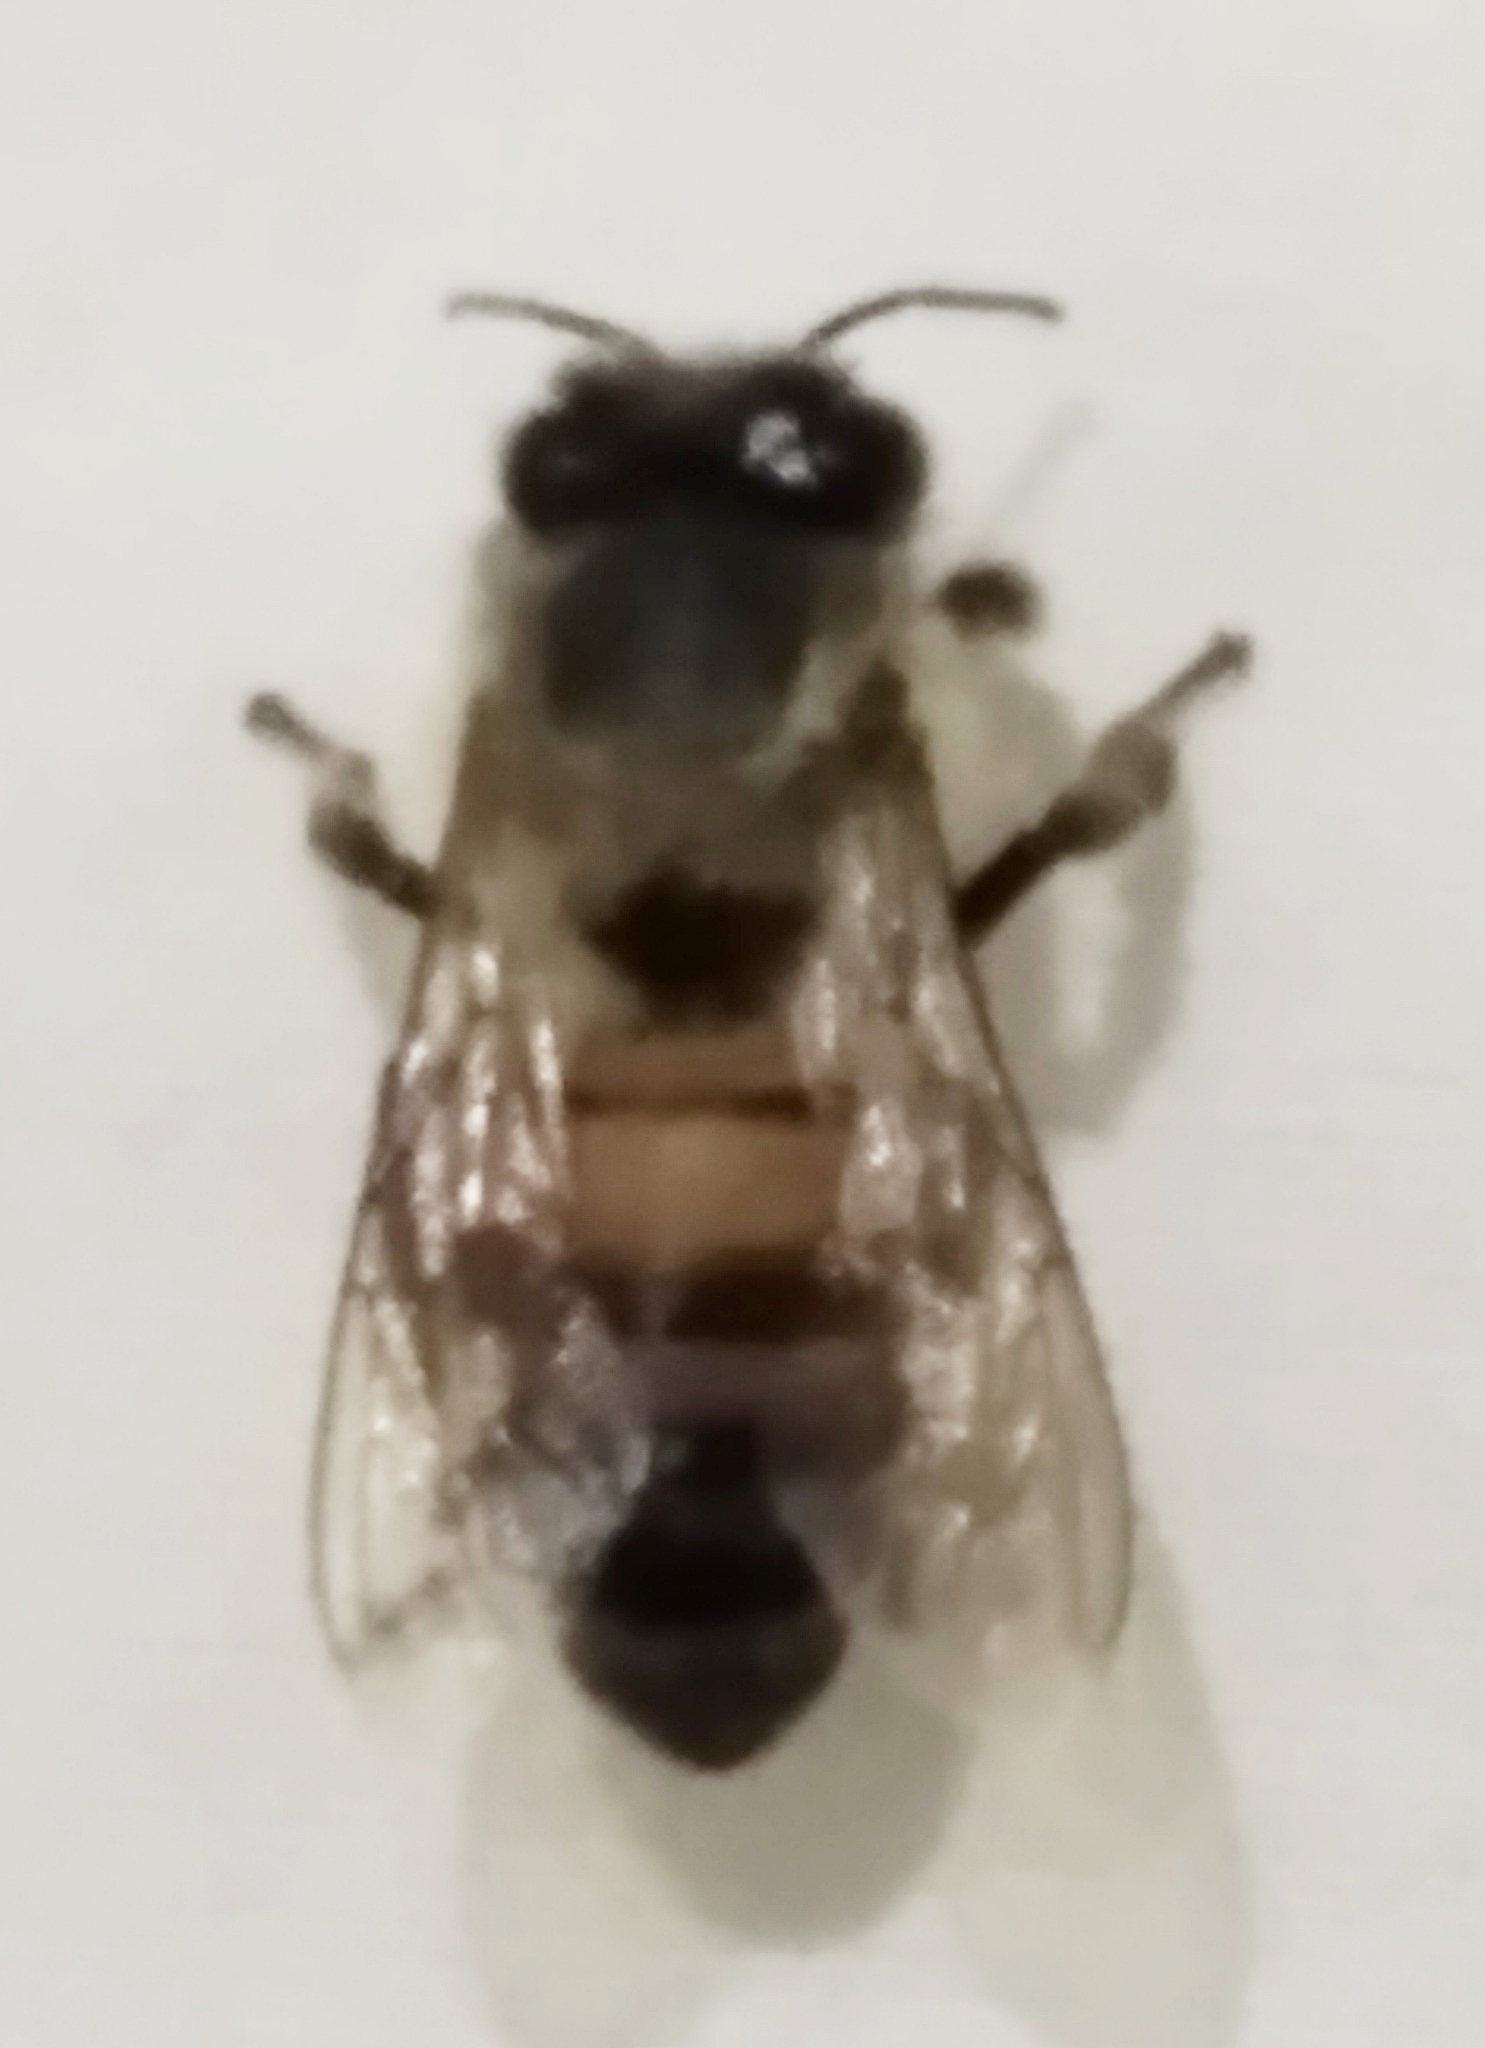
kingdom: Animalia
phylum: Arthropoda
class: Insecta
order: Hymenoptera
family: Apidae
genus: Apis
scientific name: Apis mellifera
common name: Honey bee
